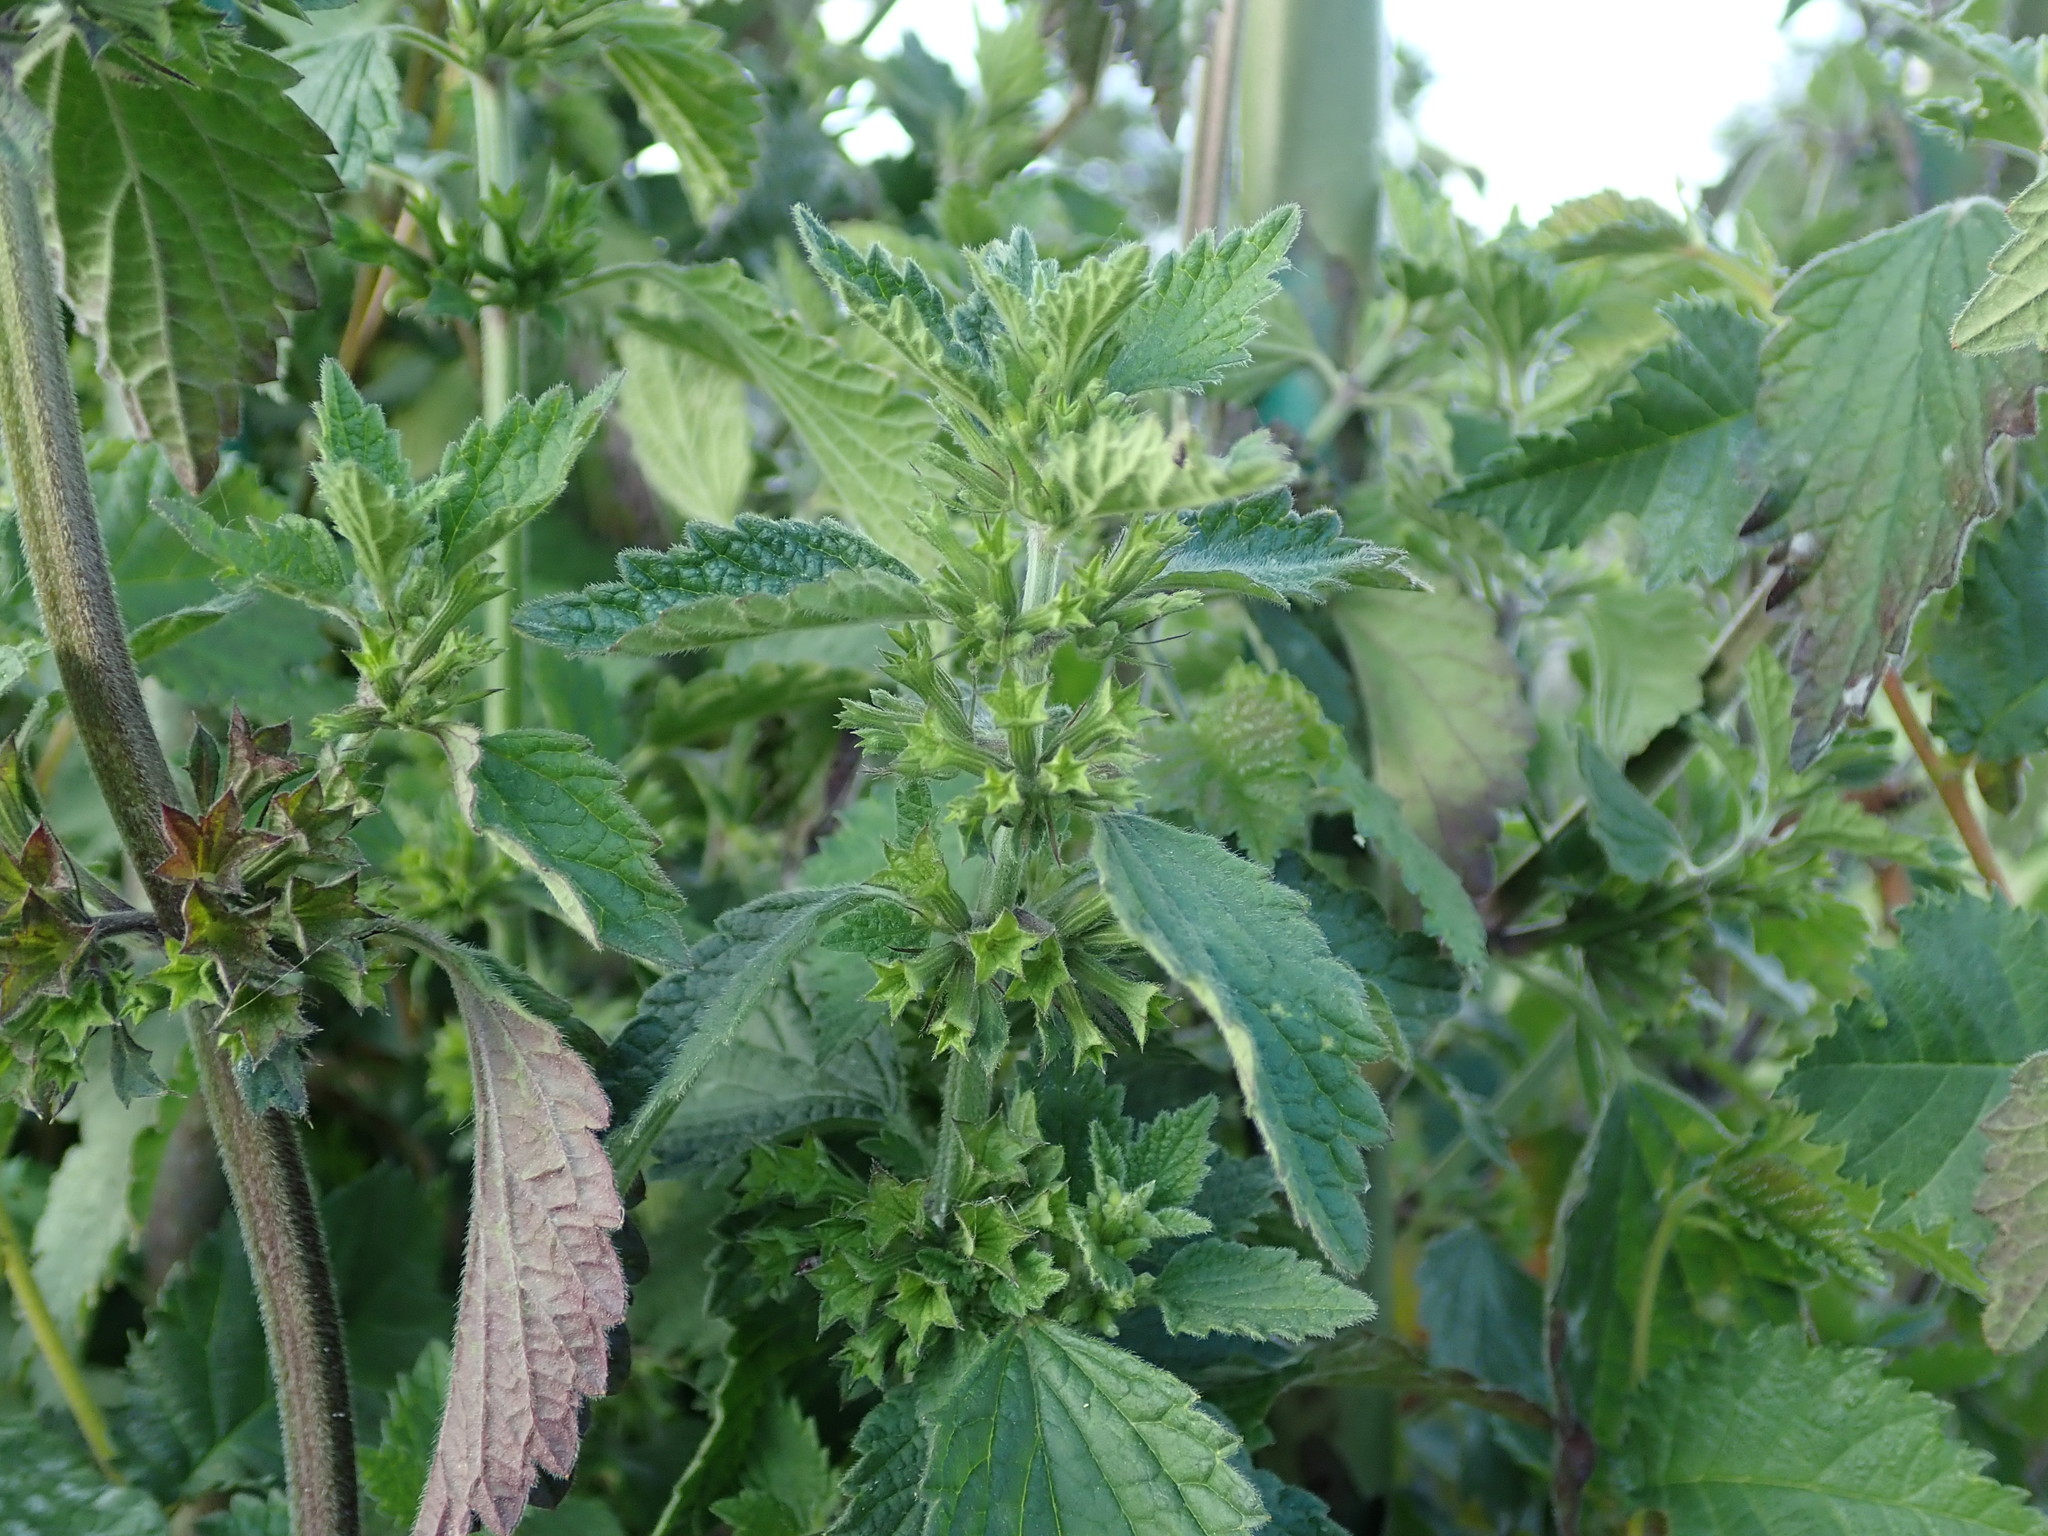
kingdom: Plantae
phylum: Tracheophyta
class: Magnoliopsida
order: Lamiales
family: Lamiaceae
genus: Ballota
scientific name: Ballota nigra
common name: Black horehound
